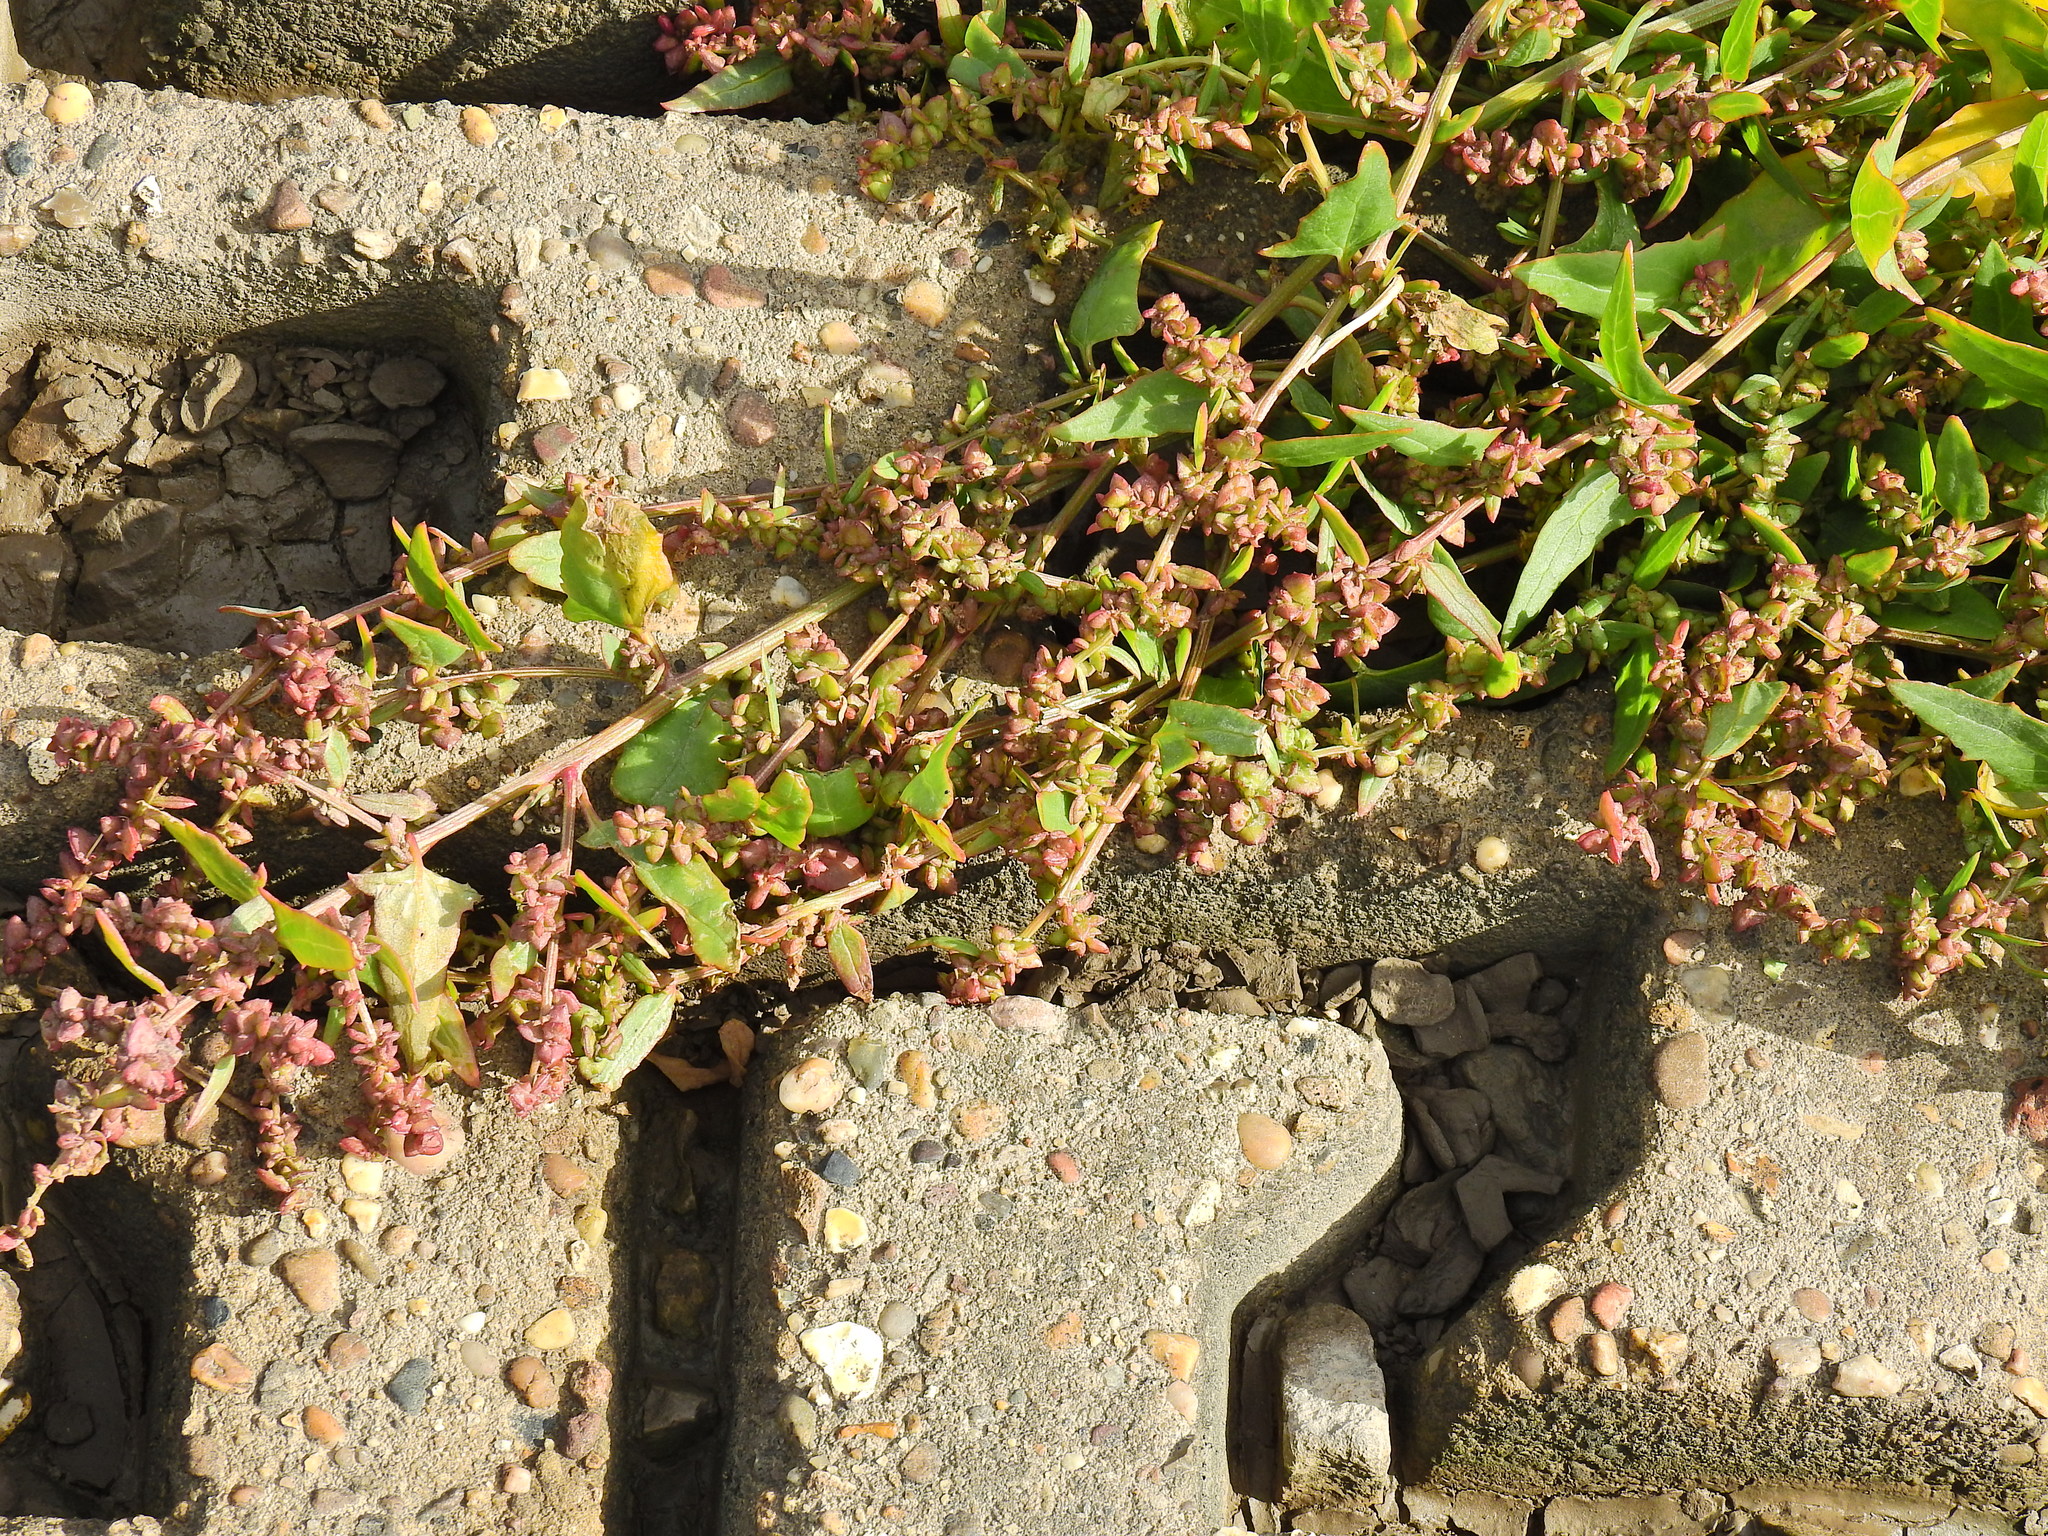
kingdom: Plantae
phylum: Tracheophyta
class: Magnoliopsida
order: Caryophyllales
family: Amaranthaceae
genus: Atriplex
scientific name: Atriplex prostrata
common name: Spear-leaved orache
